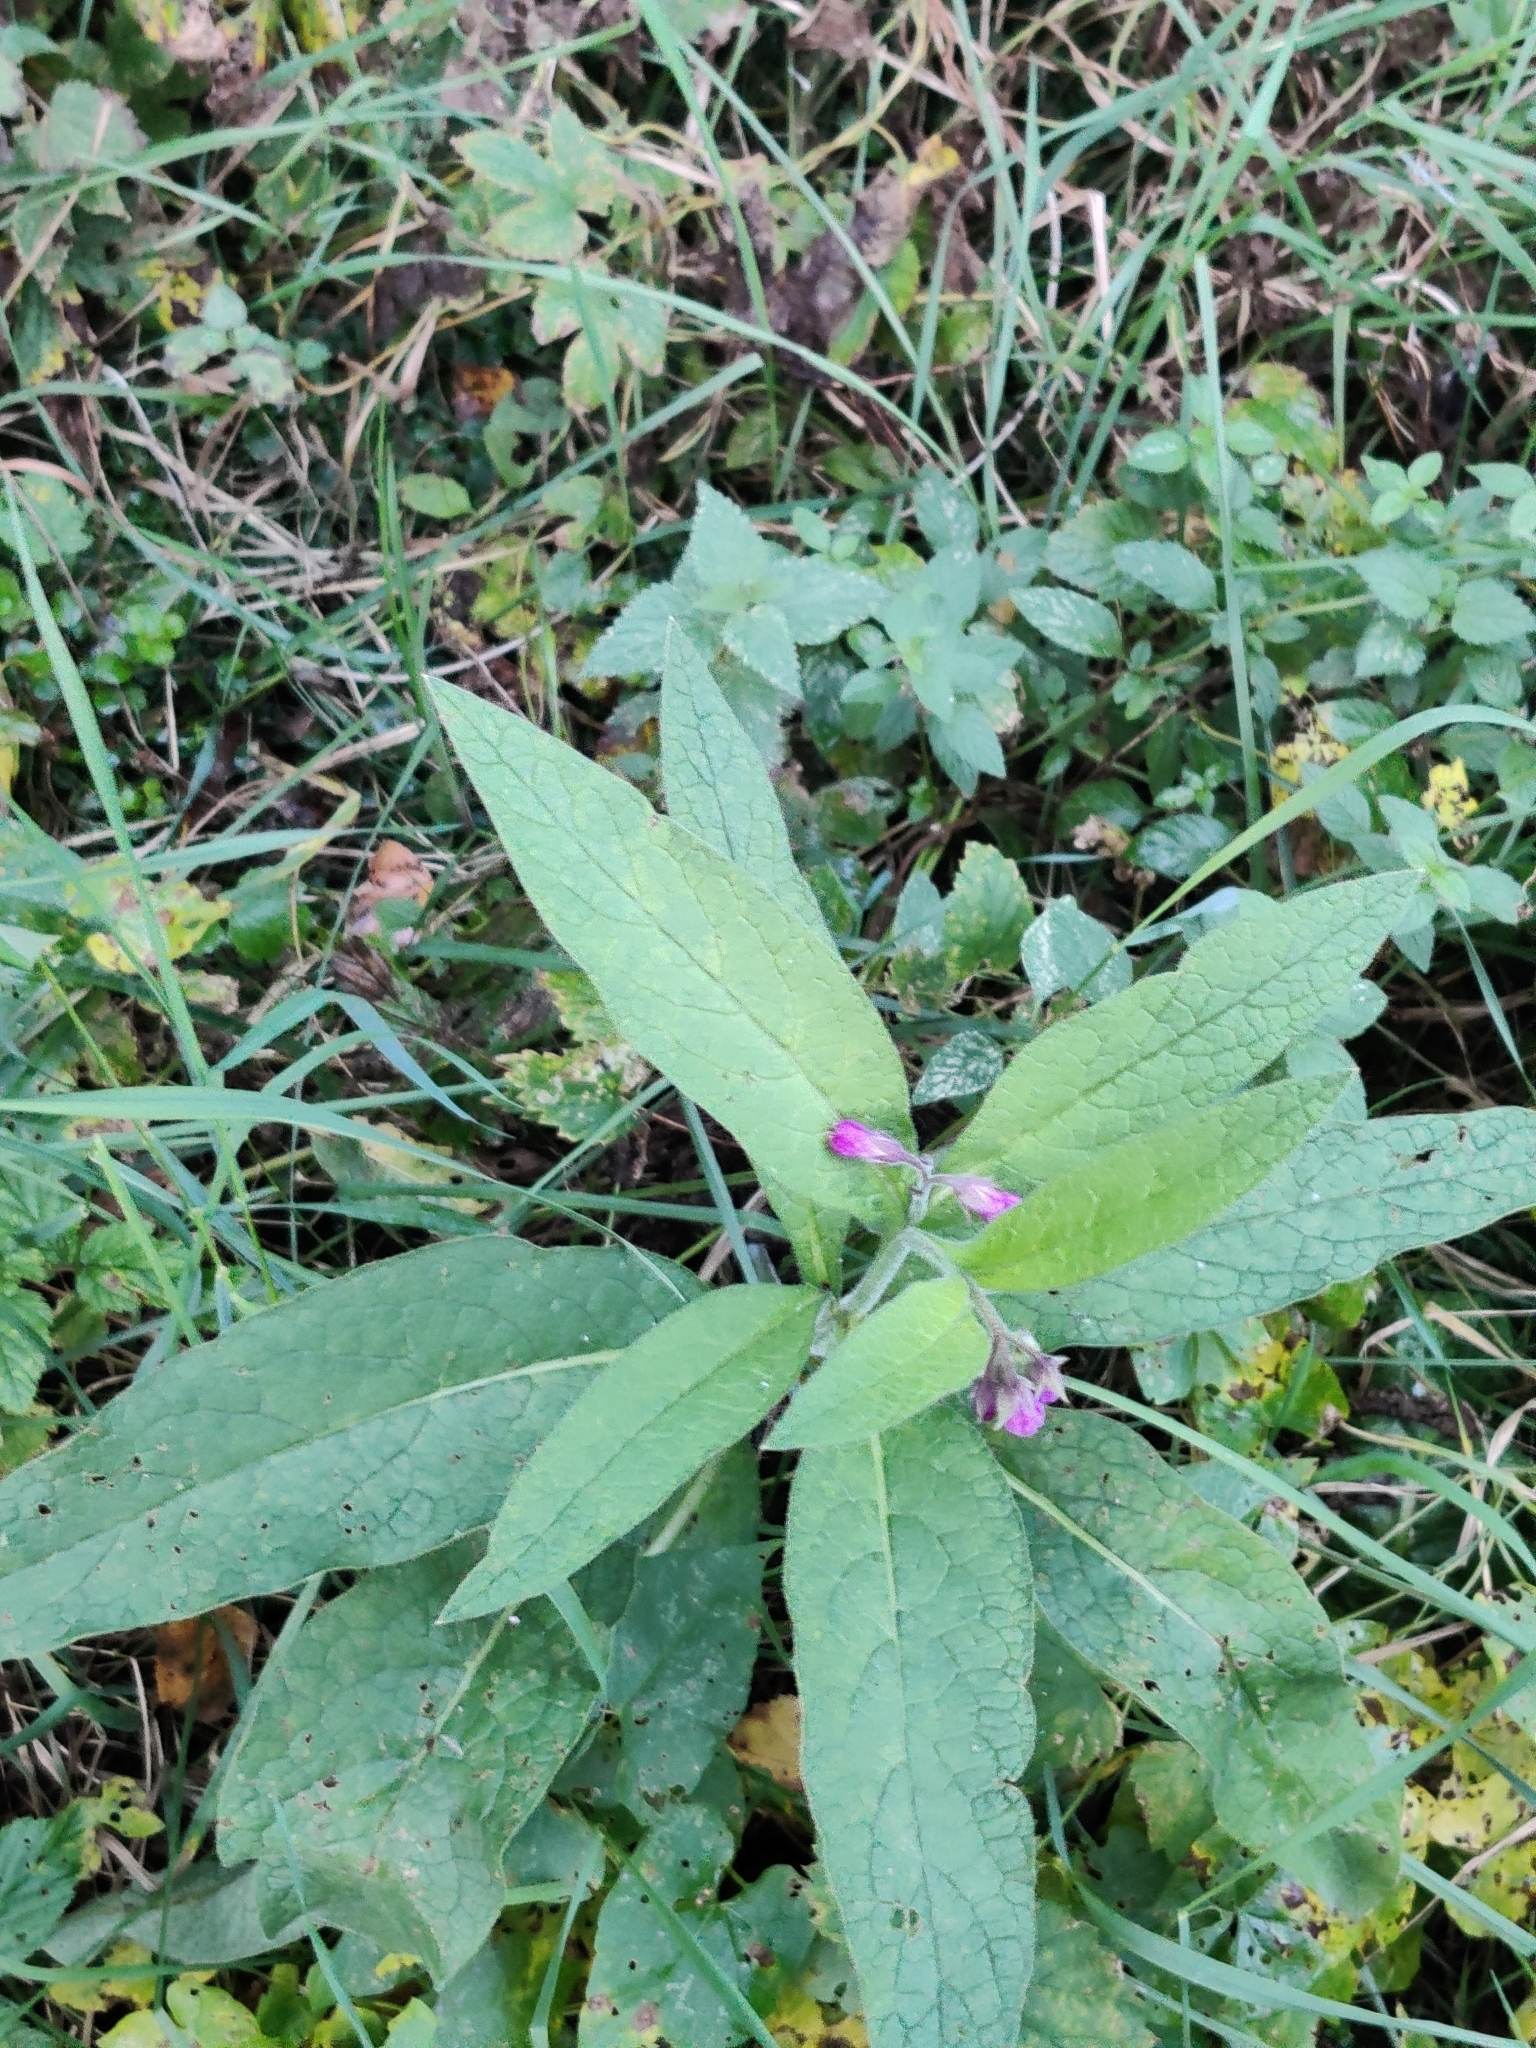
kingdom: Plantae
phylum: Tracheophyta
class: Magnoliopsida
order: Boraginales
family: Boraginaceae
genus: Symphytum
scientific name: Symphytum officinale
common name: Common comfrey
